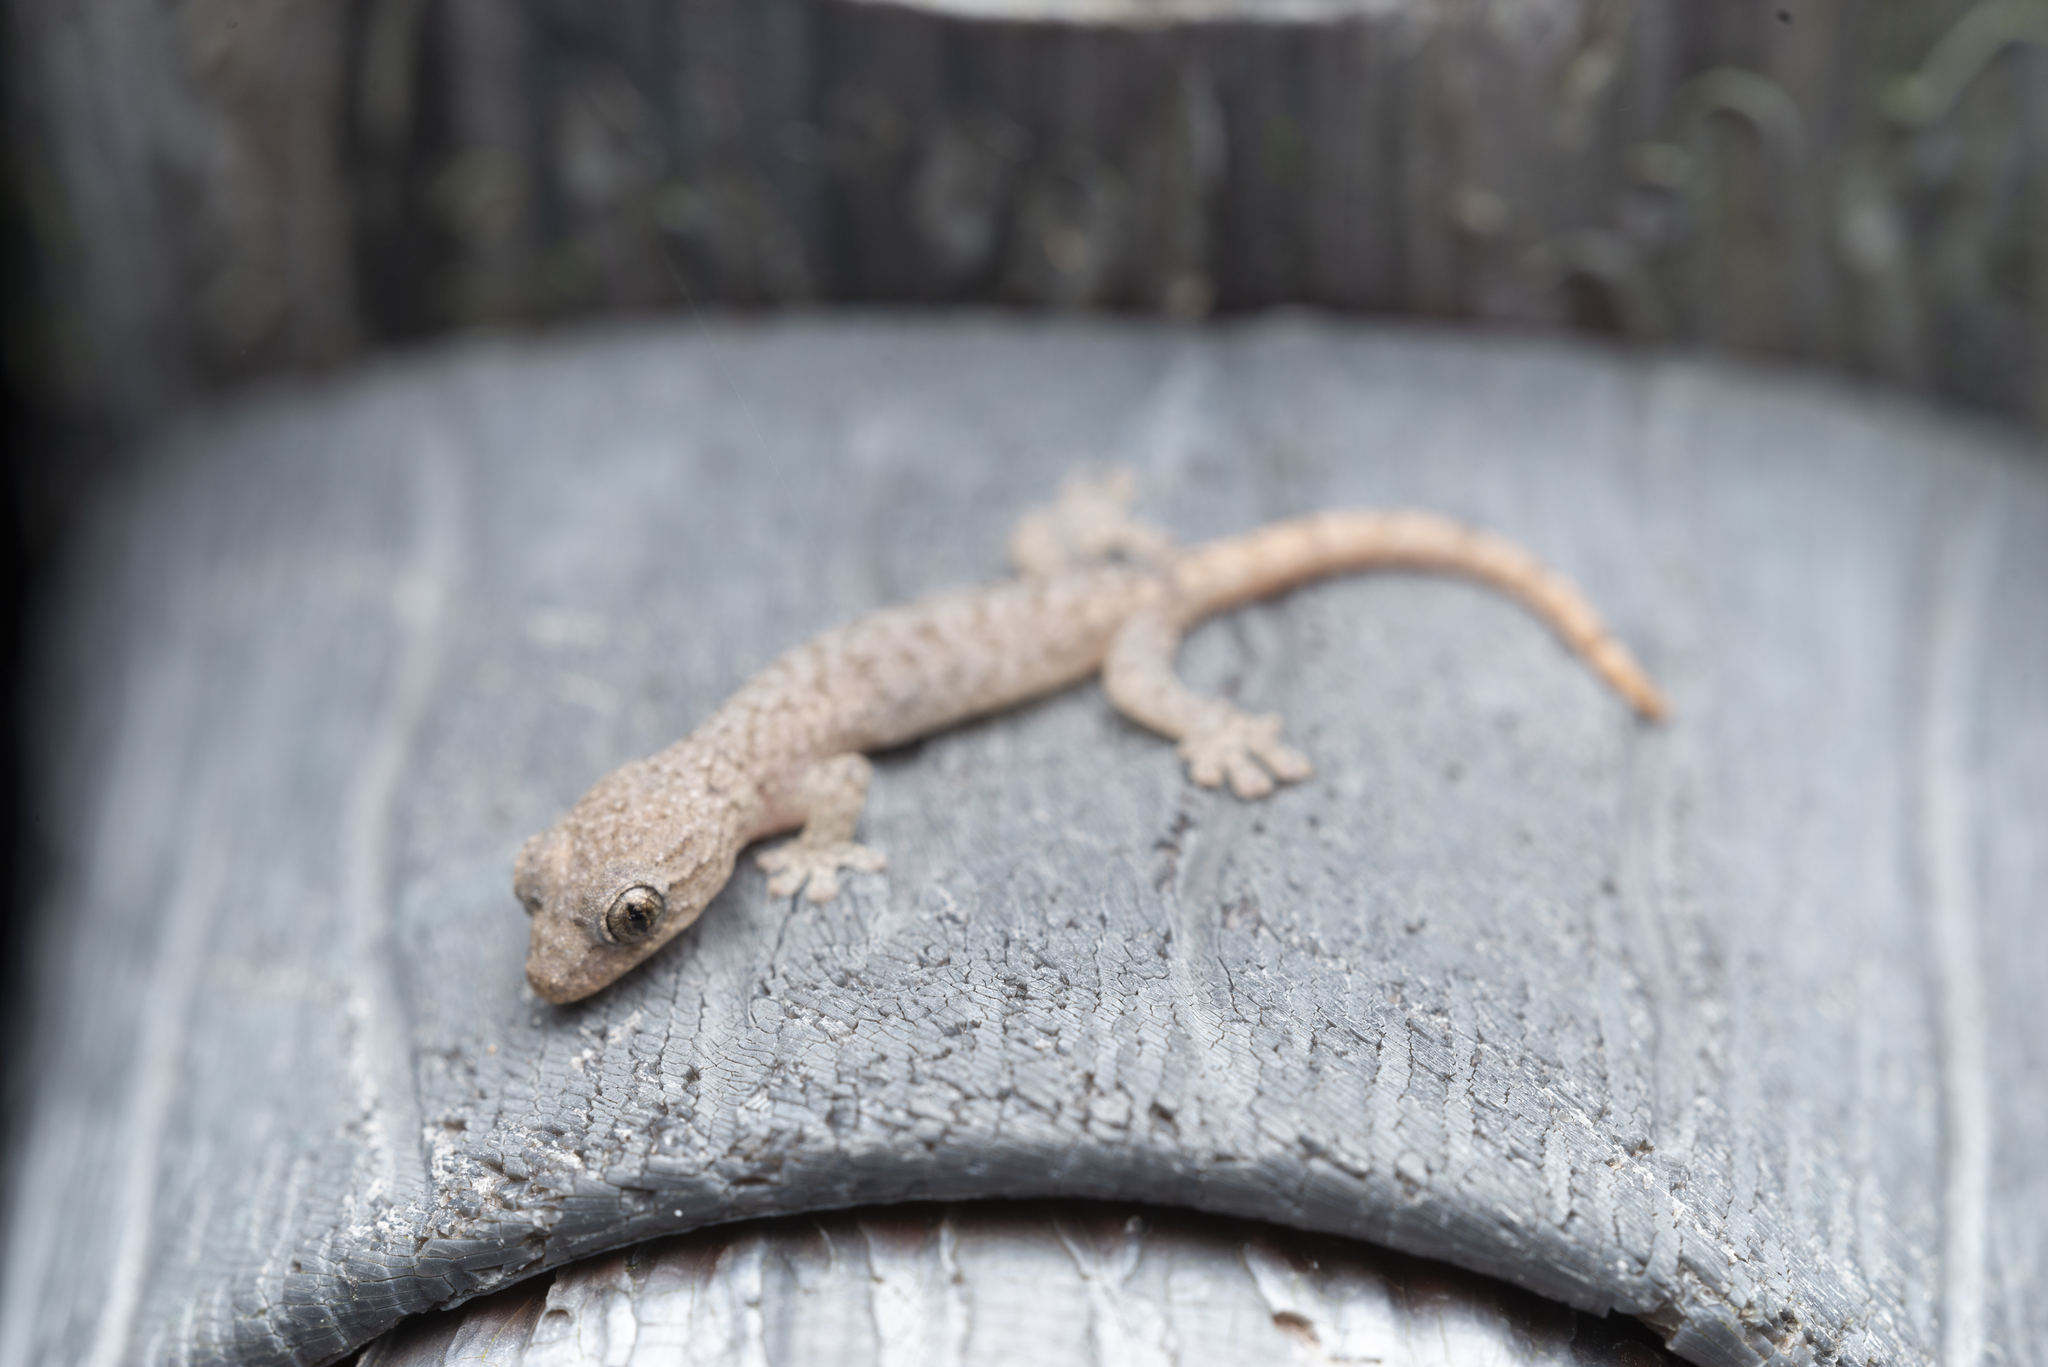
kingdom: Animalia
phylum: Chordata
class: Squamata
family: Gekkonidae
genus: Hemiphyllodactylus
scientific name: Hemiphyllodactylus hongkongensis
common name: Hong kong slender gecko
